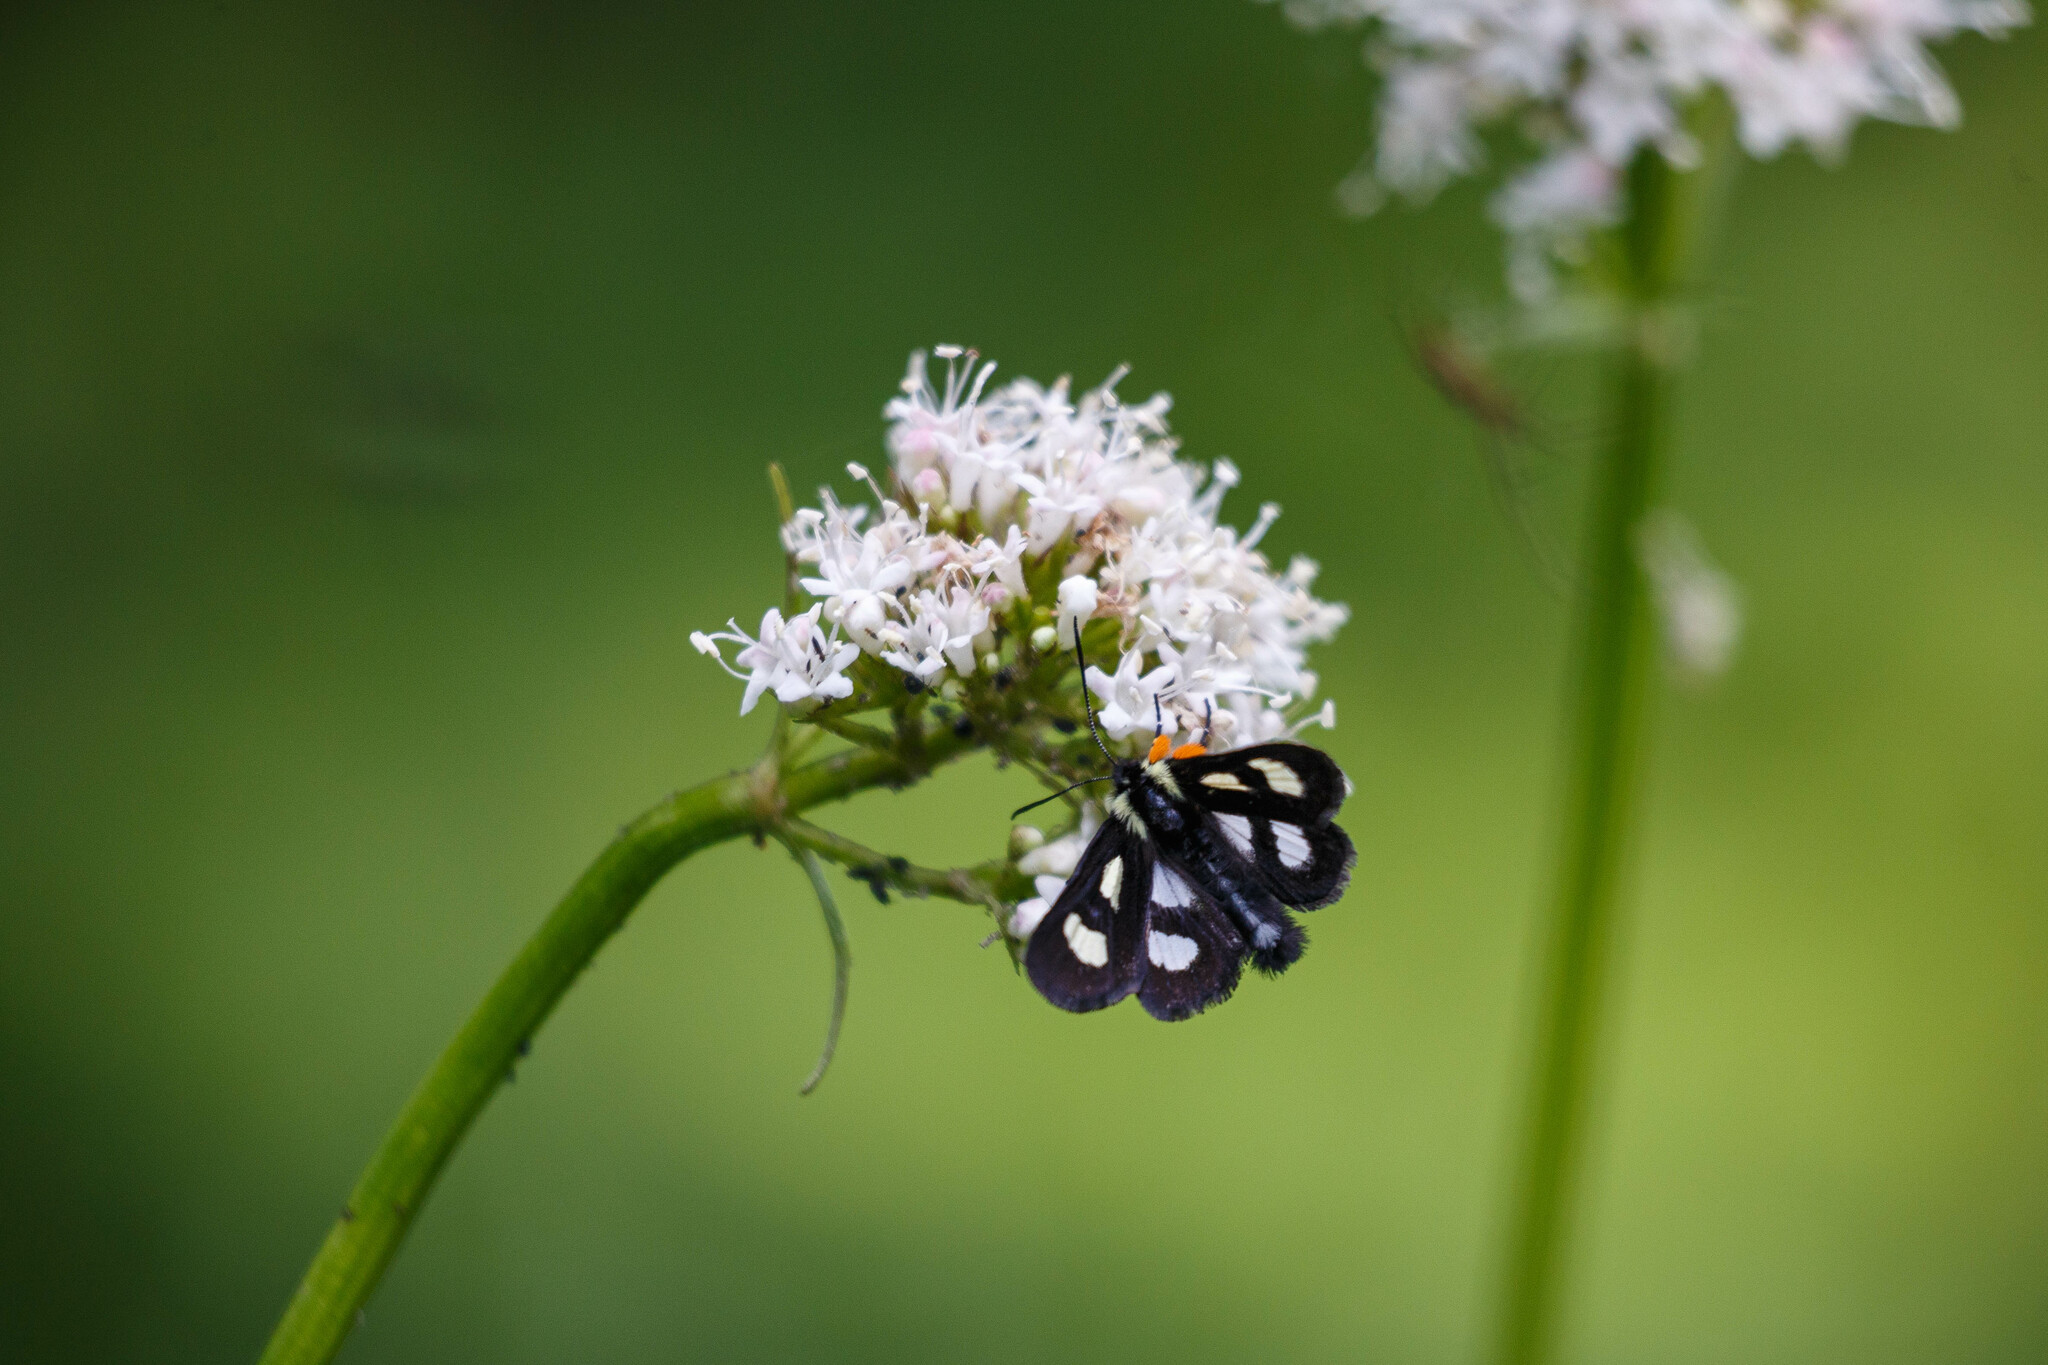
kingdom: Animalia
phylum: Arthropoda
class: Insecta
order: Lepidoptera
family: Noctuidae
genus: Alypia
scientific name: Alypia langtonii
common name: Fireweed caterpillar
